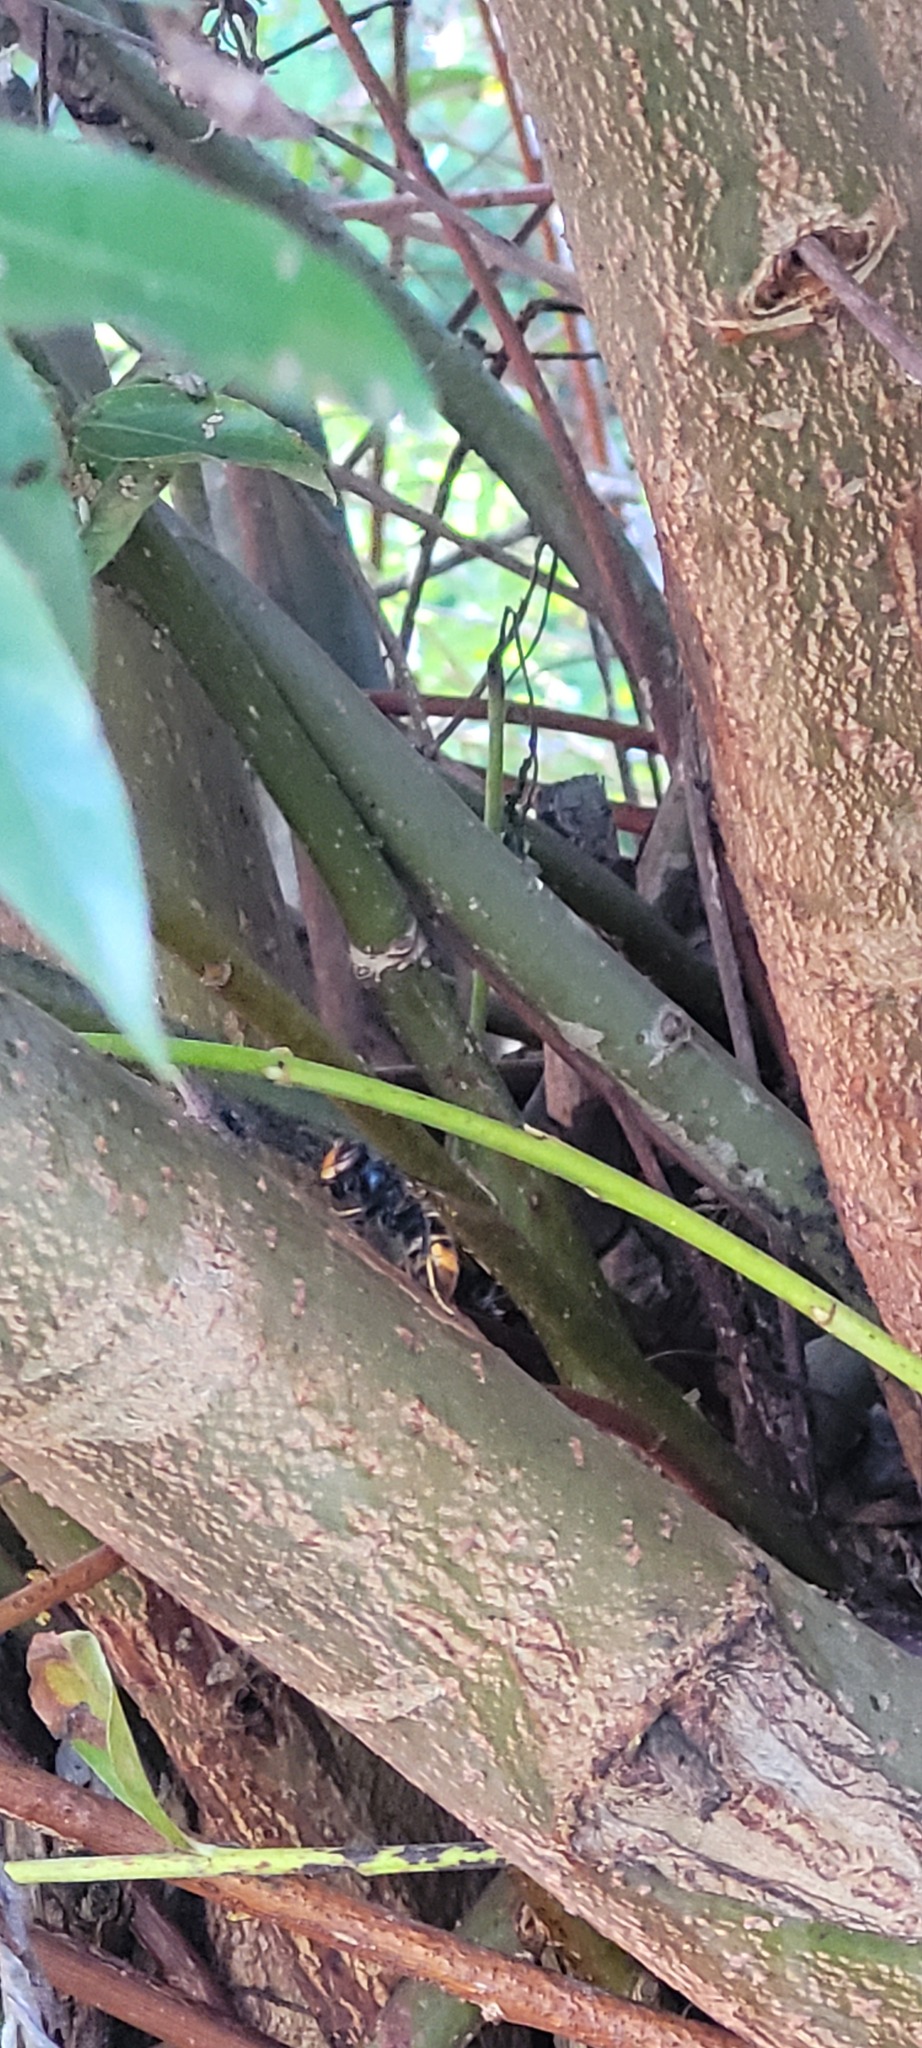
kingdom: Animalia
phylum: Arthropoda
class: Insecta
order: Hymenoptera
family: Vespidae
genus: Vespa
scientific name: Vespa velutina
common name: Asian hornet
